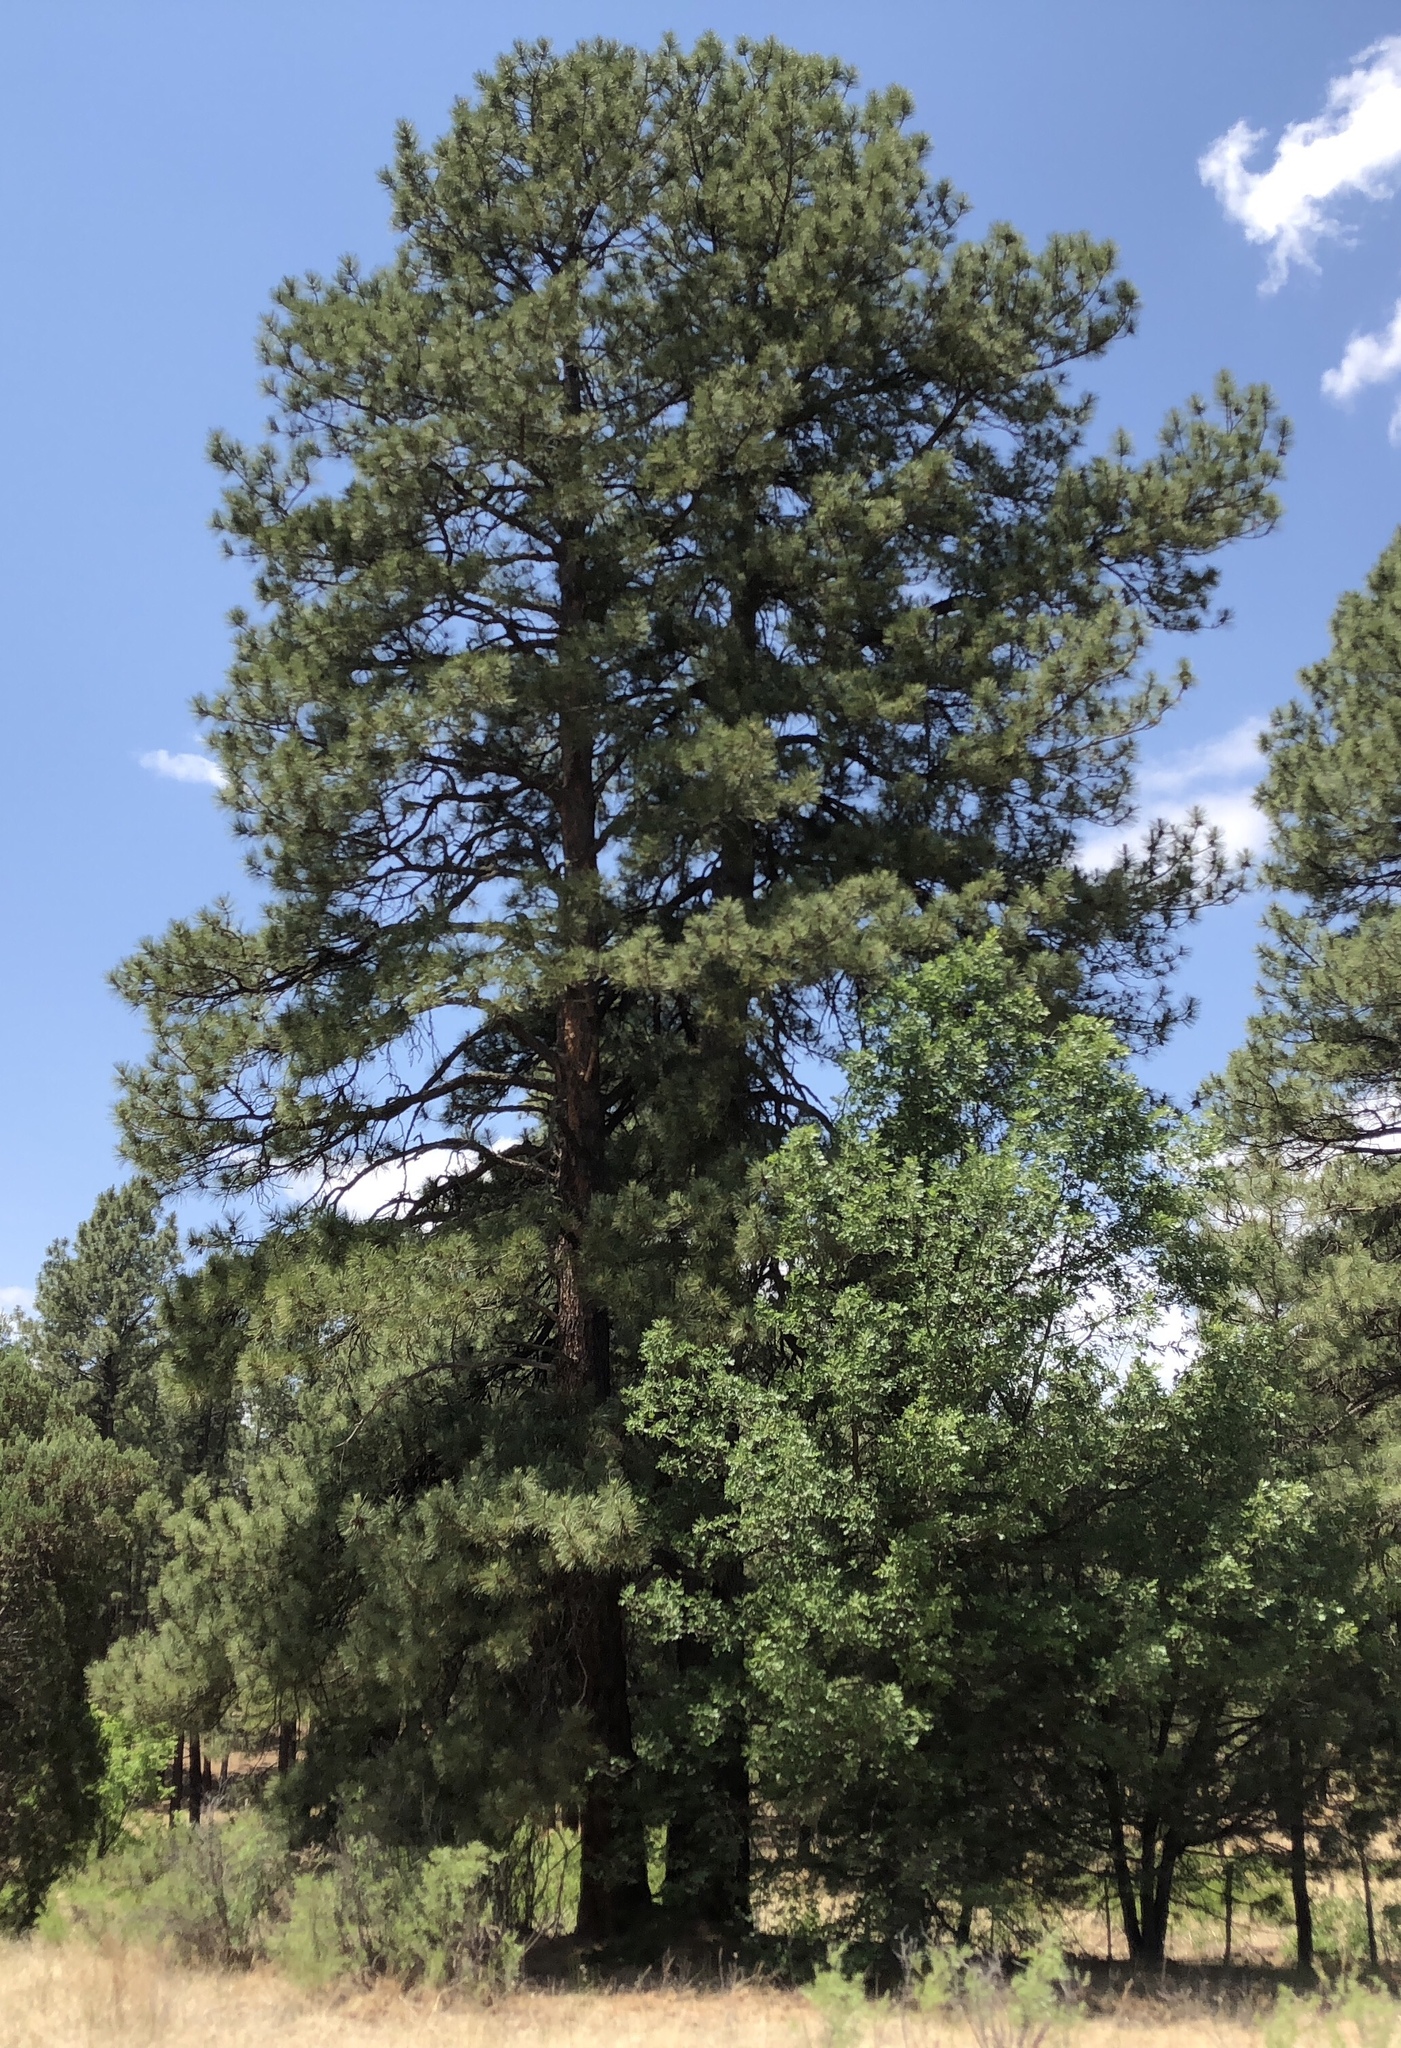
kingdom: Plantae
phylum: Tracheophyta
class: Pinopsida
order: Pinales
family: Pinaceae
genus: Pinus
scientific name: Pinus ponderosa
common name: Western yellow-pine
